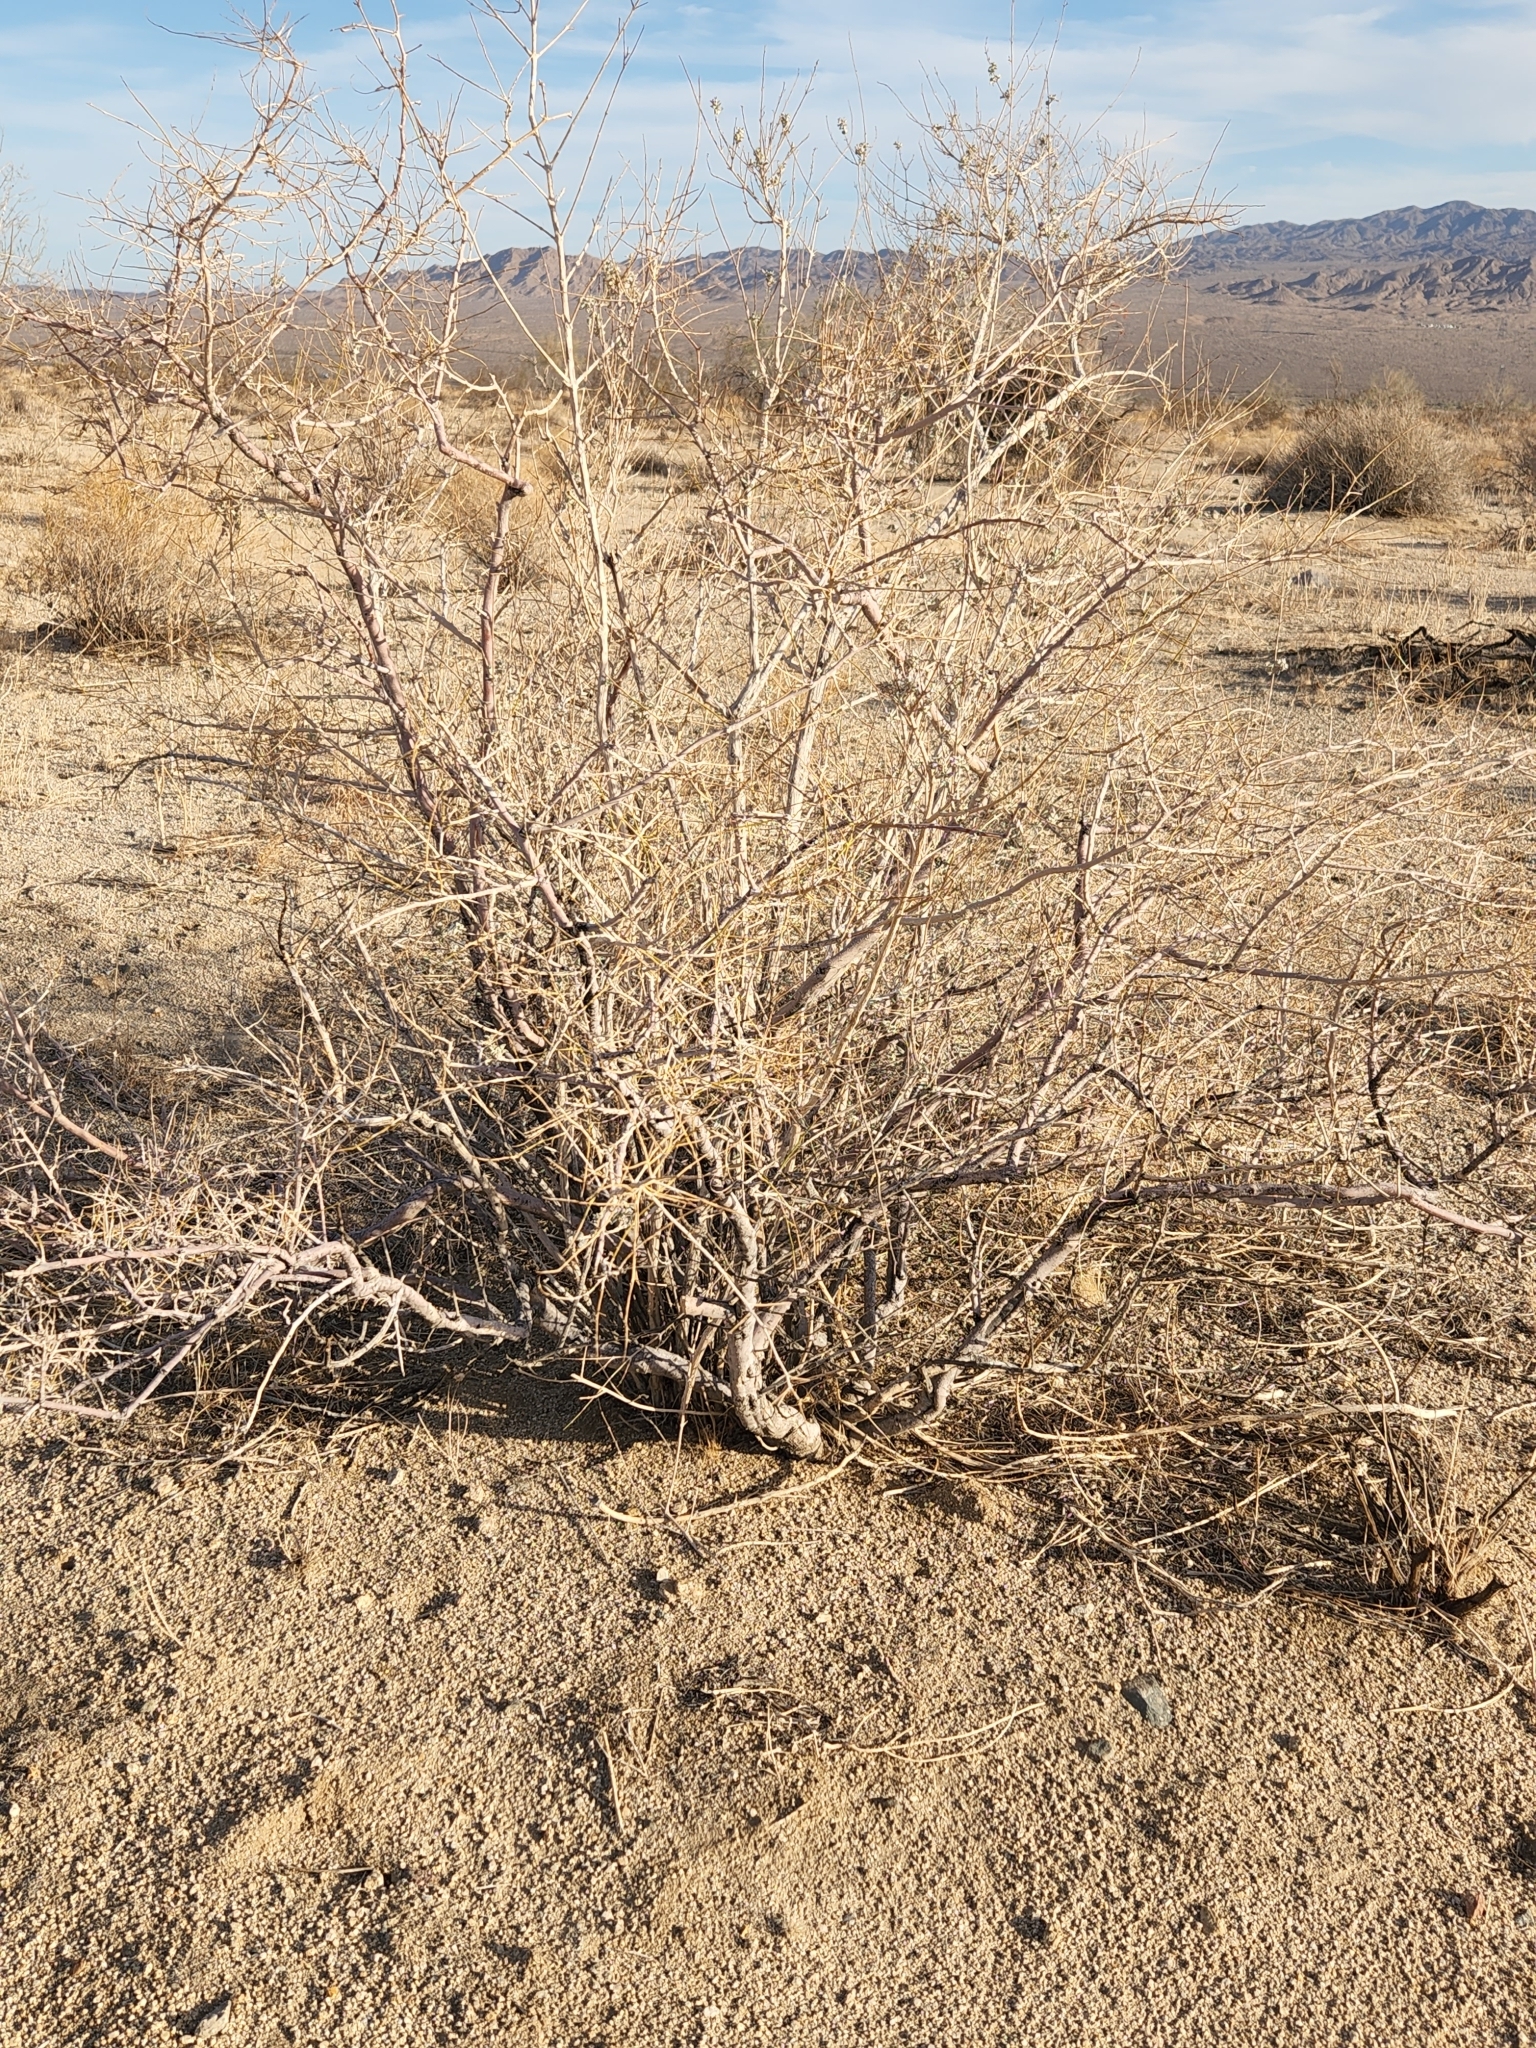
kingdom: Plantae
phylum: Tracheophyta
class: Magnoliopsida
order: Lamiales
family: Lamiaceae
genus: Condea
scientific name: Condea emoryi
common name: Chia
